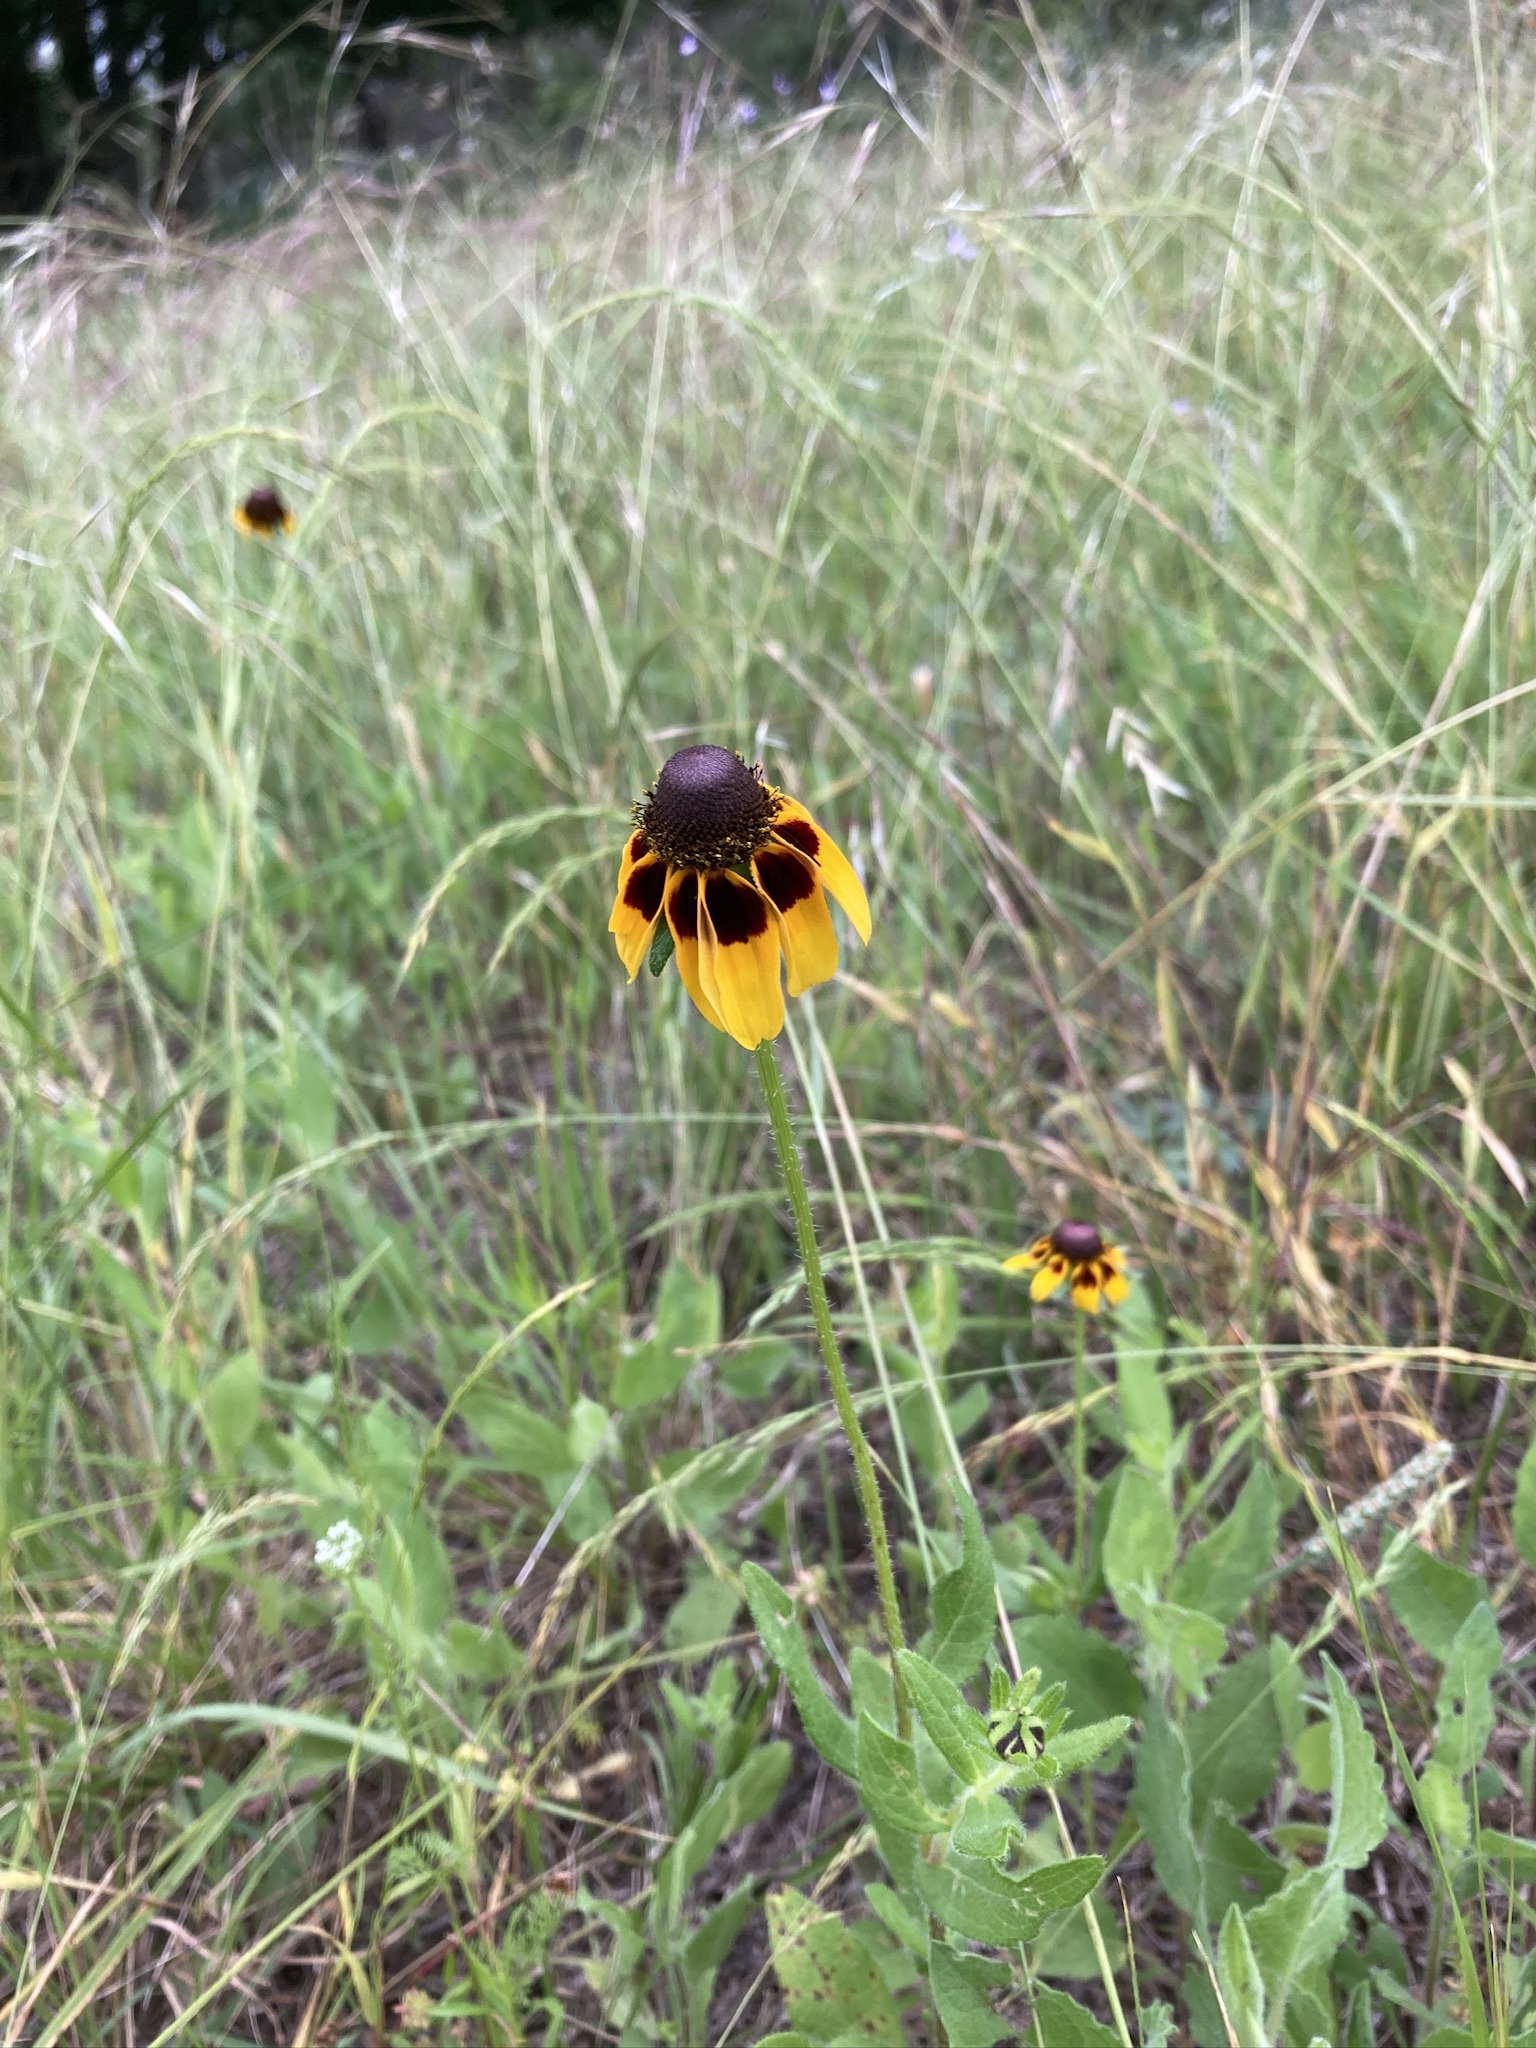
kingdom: Plantae
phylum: Tracheophyta
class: Magnoliopsida
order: Asterales
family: Asteraceae
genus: Rudbeckia
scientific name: Rudbeckia hirta
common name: Black-eyed-susan
